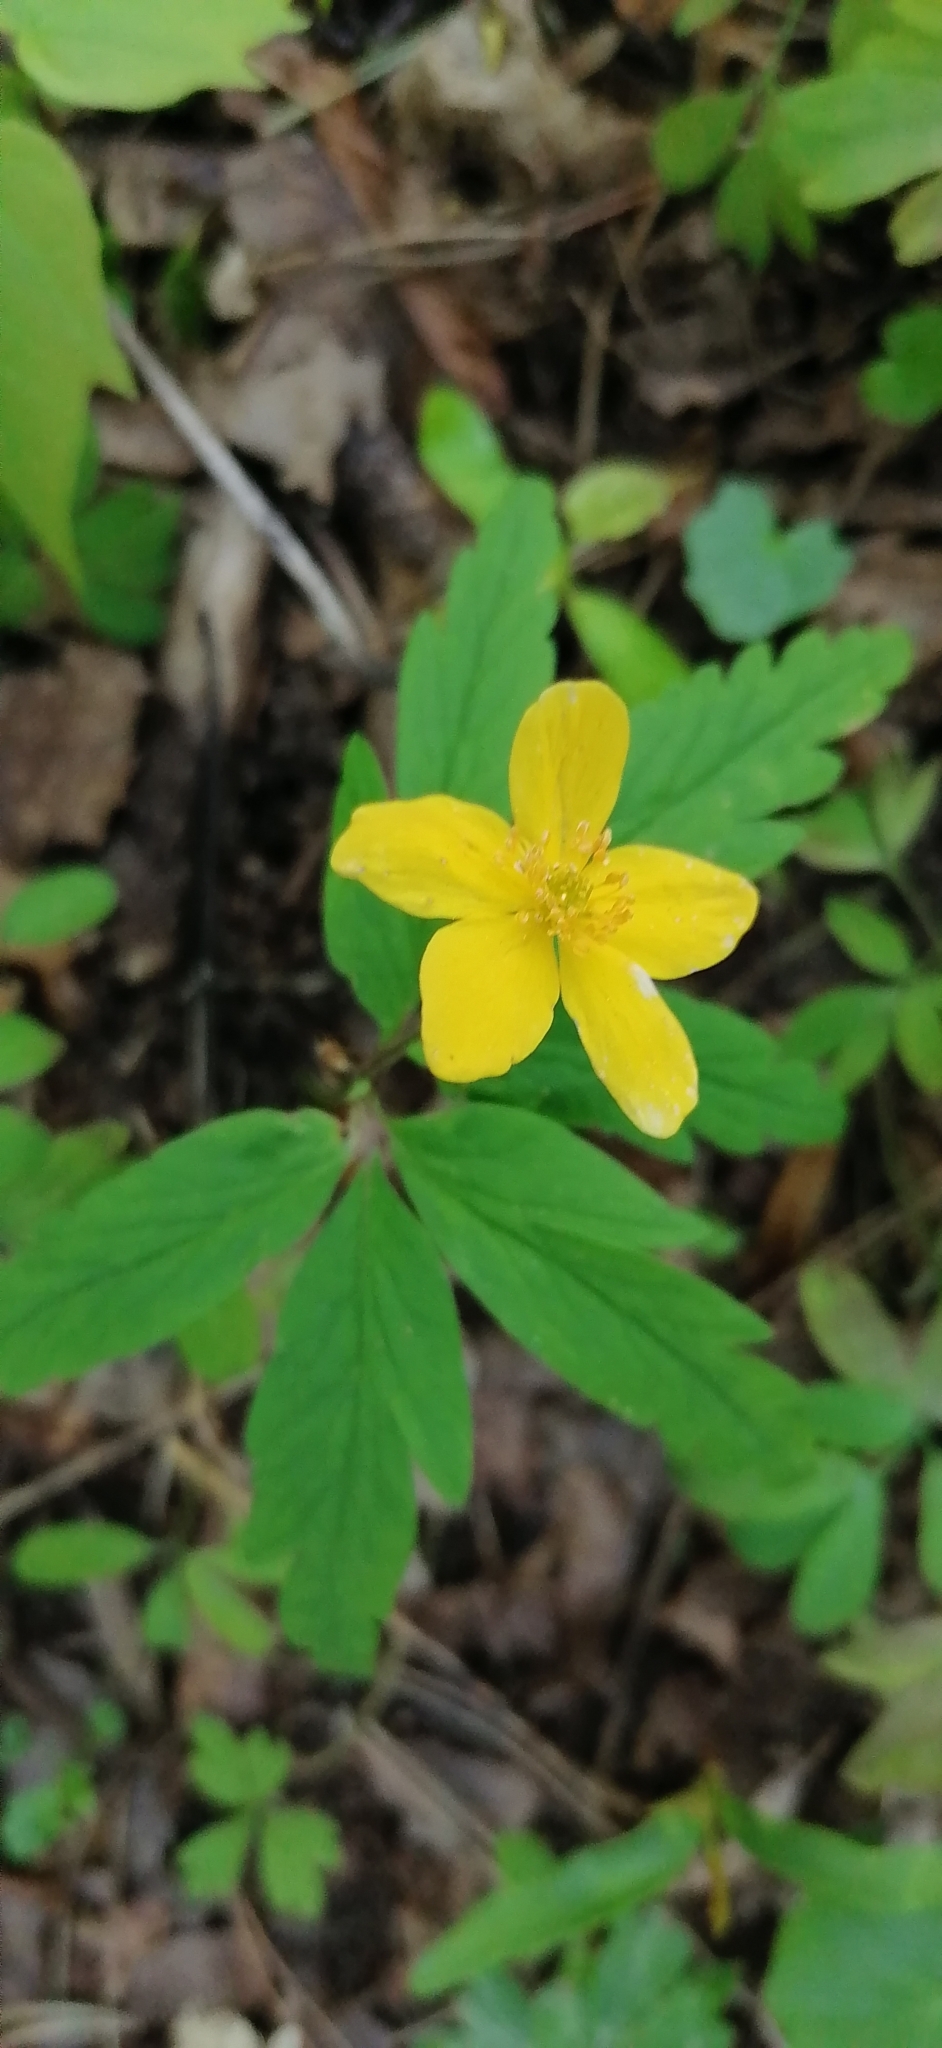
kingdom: Plantae
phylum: Tracheophyta
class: Magnoliopsida
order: Ranunculales
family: Ranunculaceae
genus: Anemone
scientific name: Anemone ranunculoides
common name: Yellow anemone
